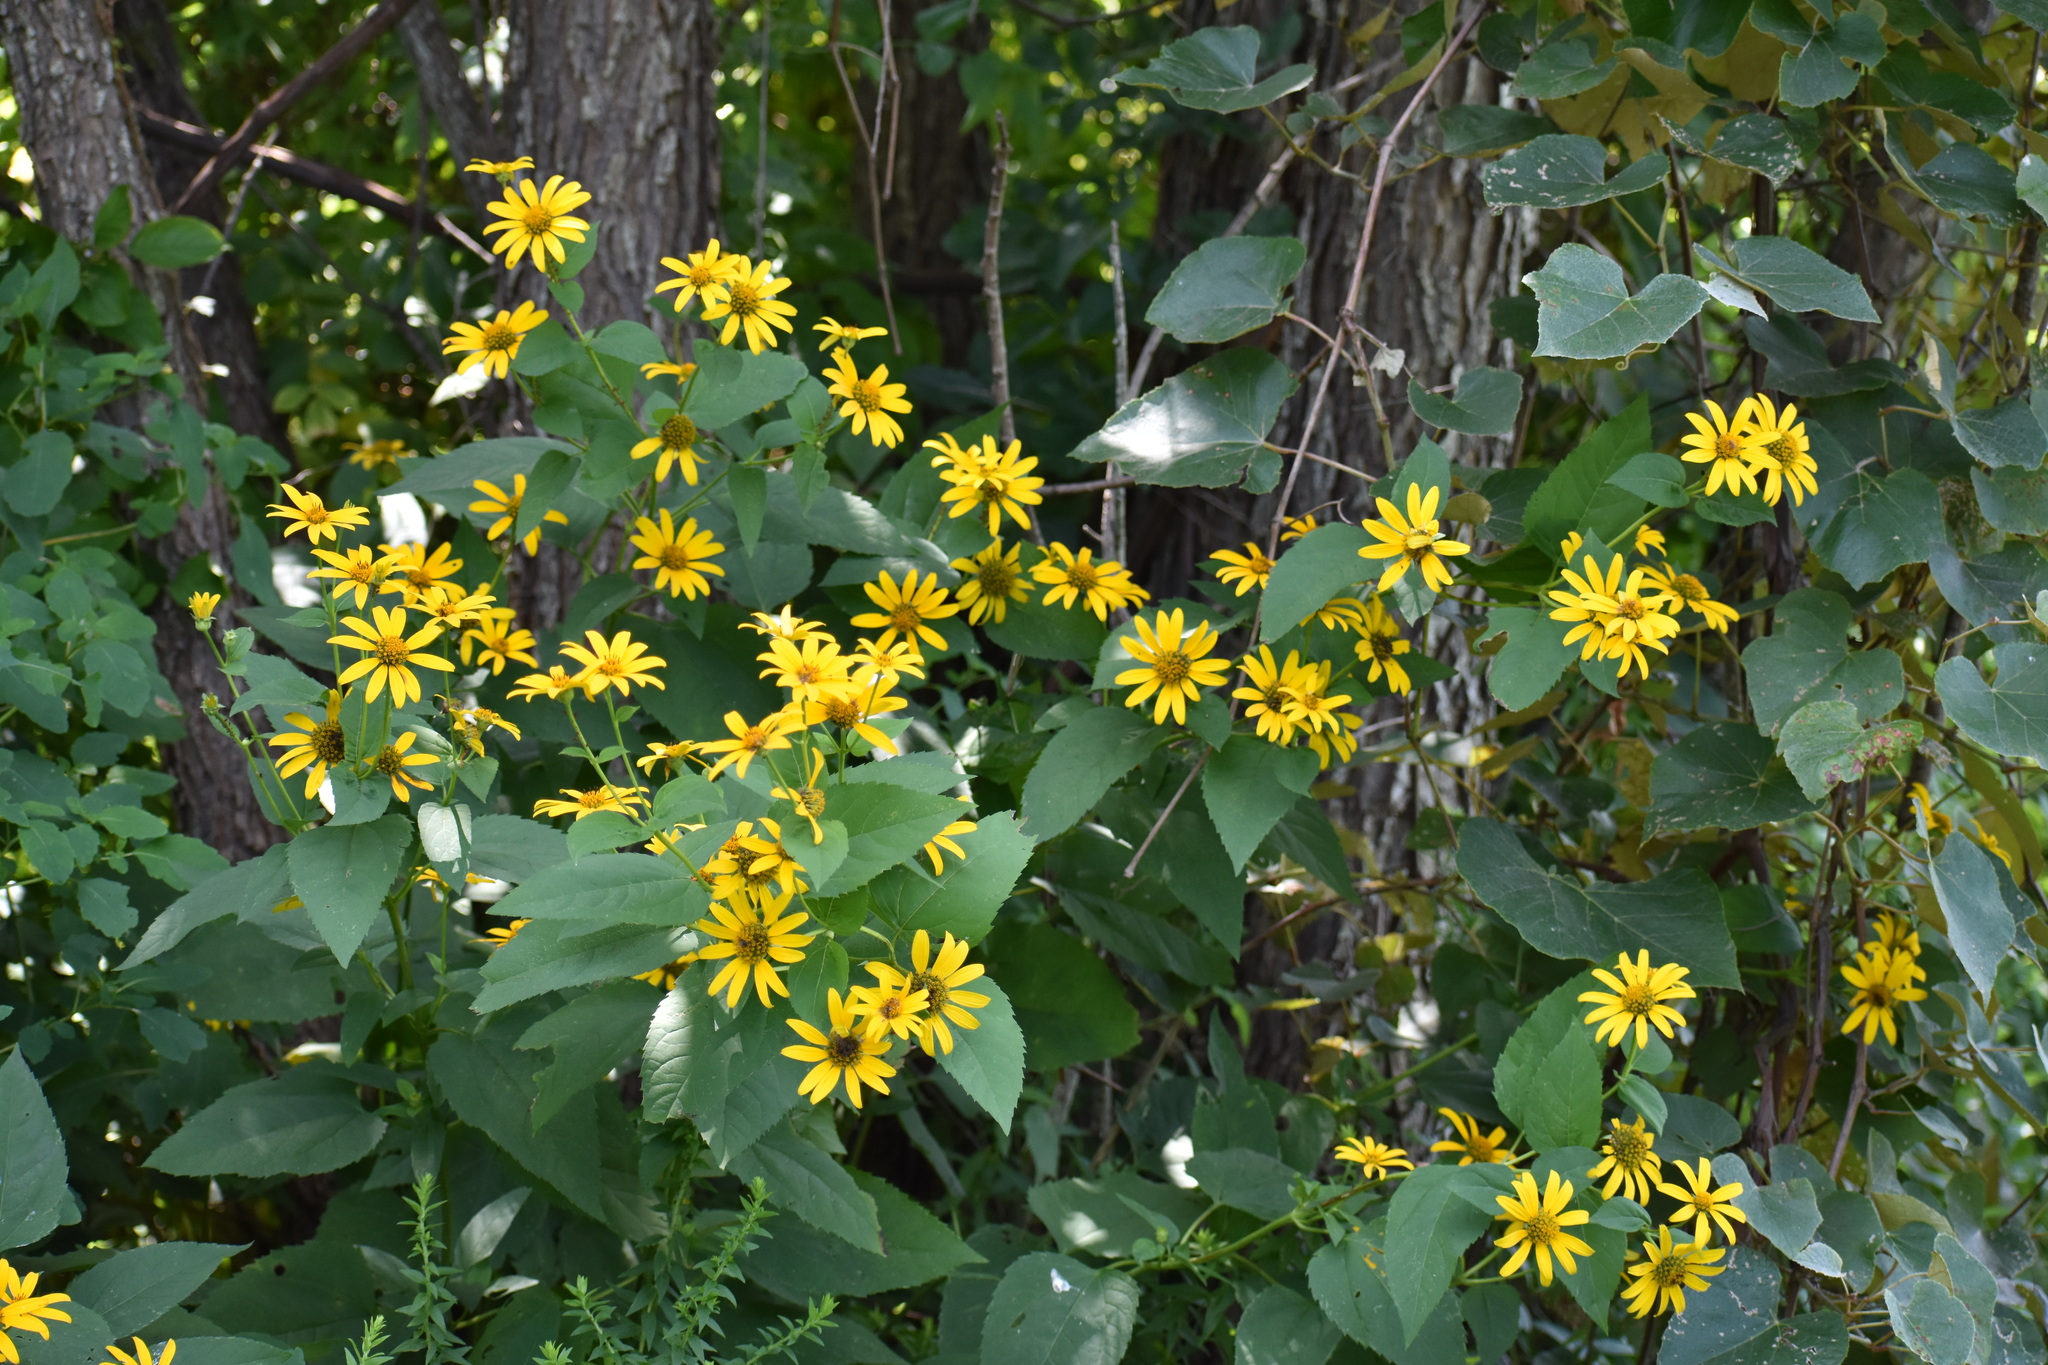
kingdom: Plantae
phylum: Tracheophyta
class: Magnoliopsida
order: Asterales
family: Asteraceae
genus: Helianthus
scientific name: Helianthus divaricatus
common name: Divergent sunflower
